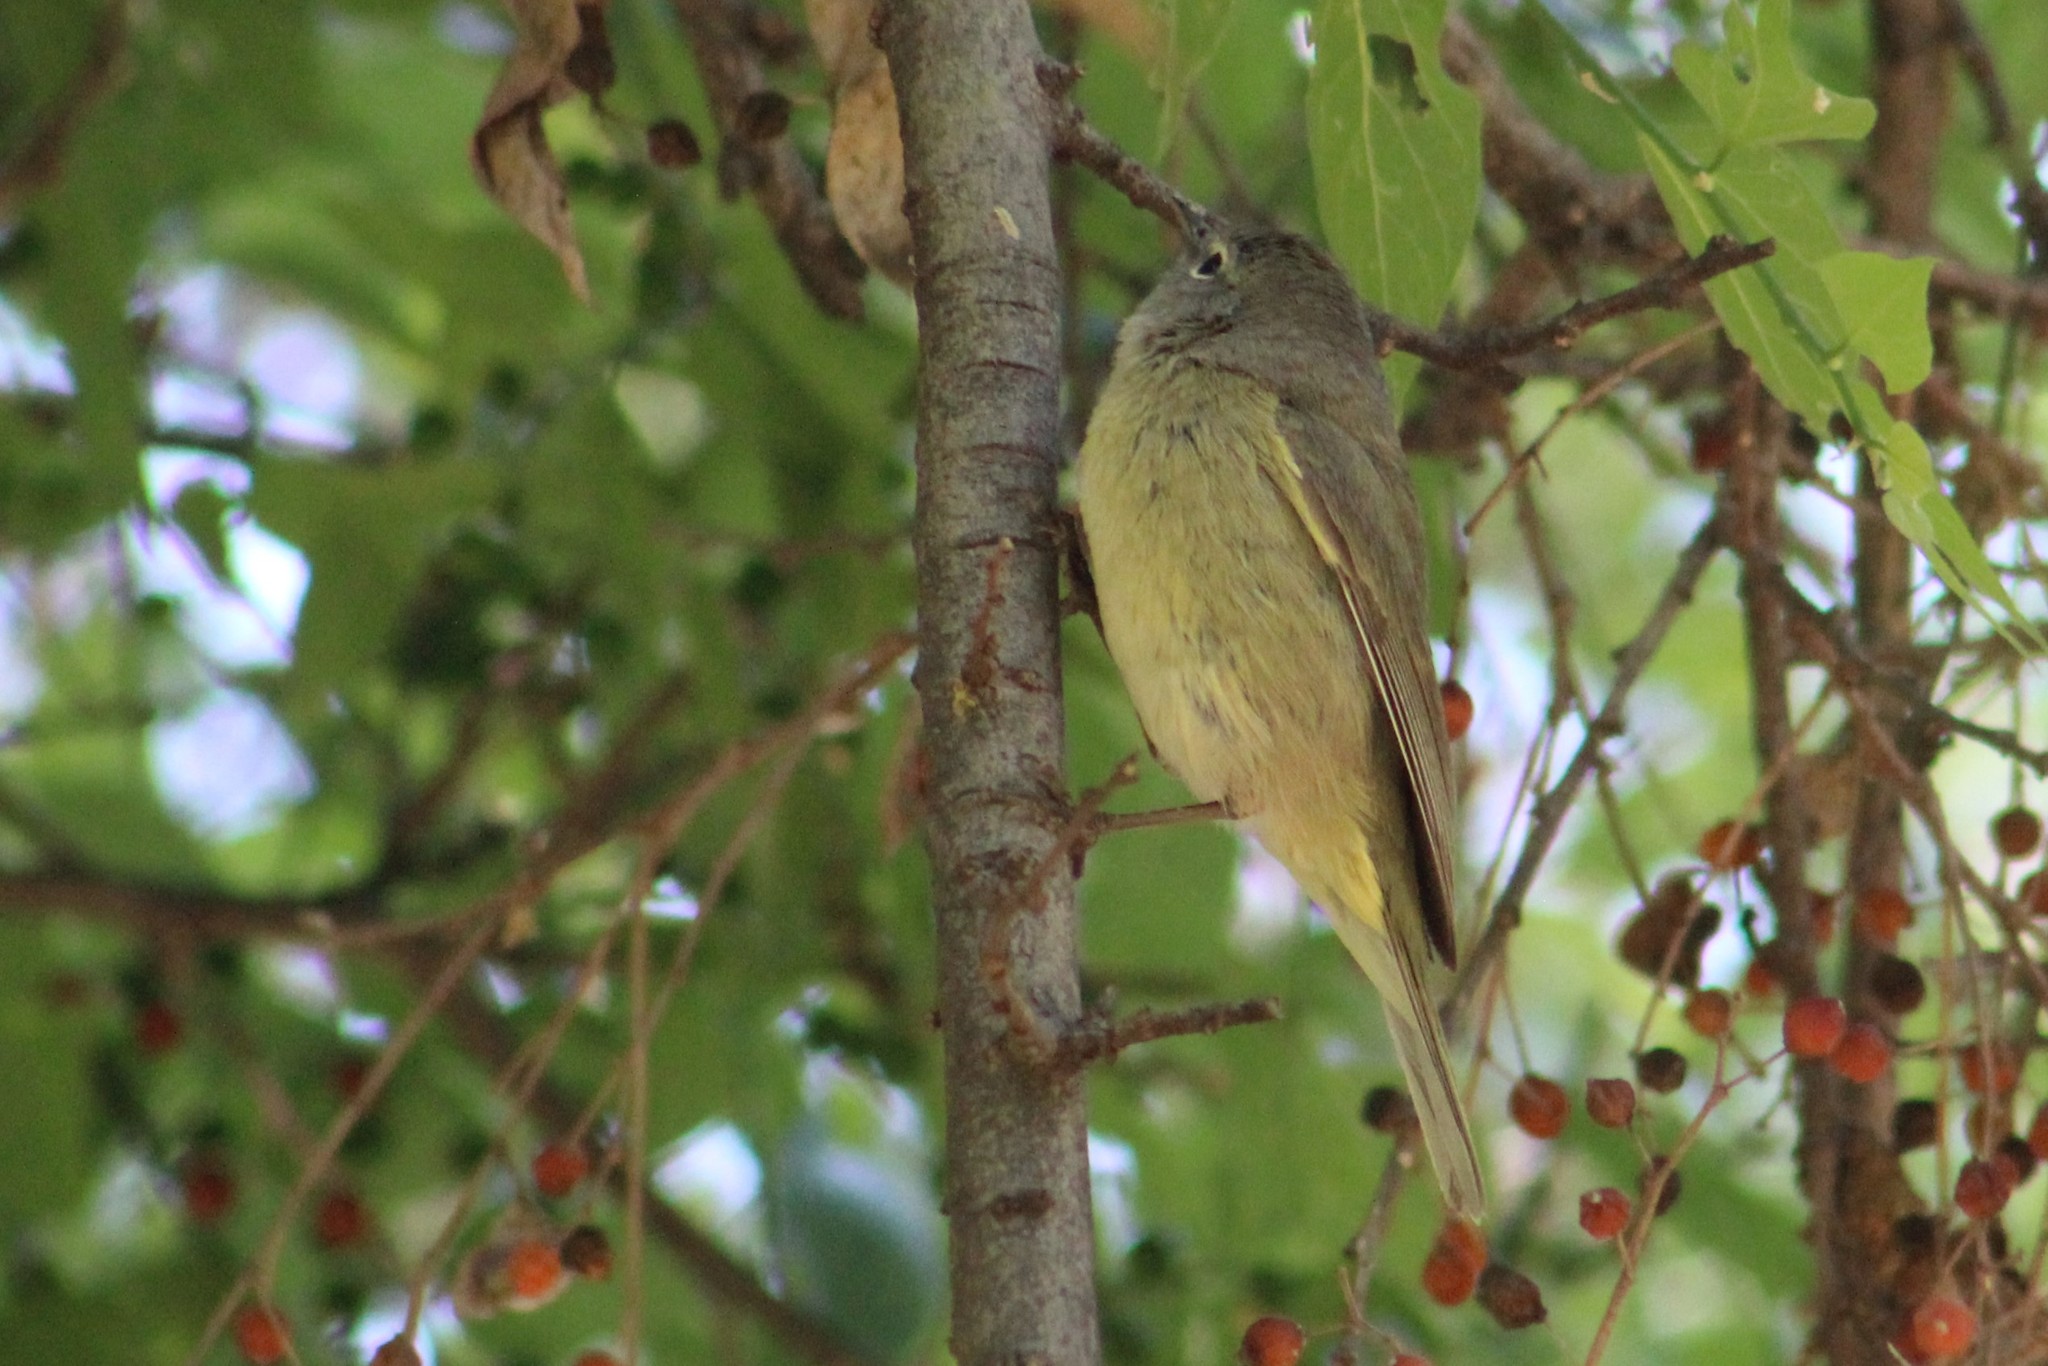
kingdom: Animalia
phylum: Chordata
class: Aves
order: Passeriformes
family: Parulidae
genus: Leiothlypis
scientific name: Leiothlypis celata
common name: Orange-crowned warbler
